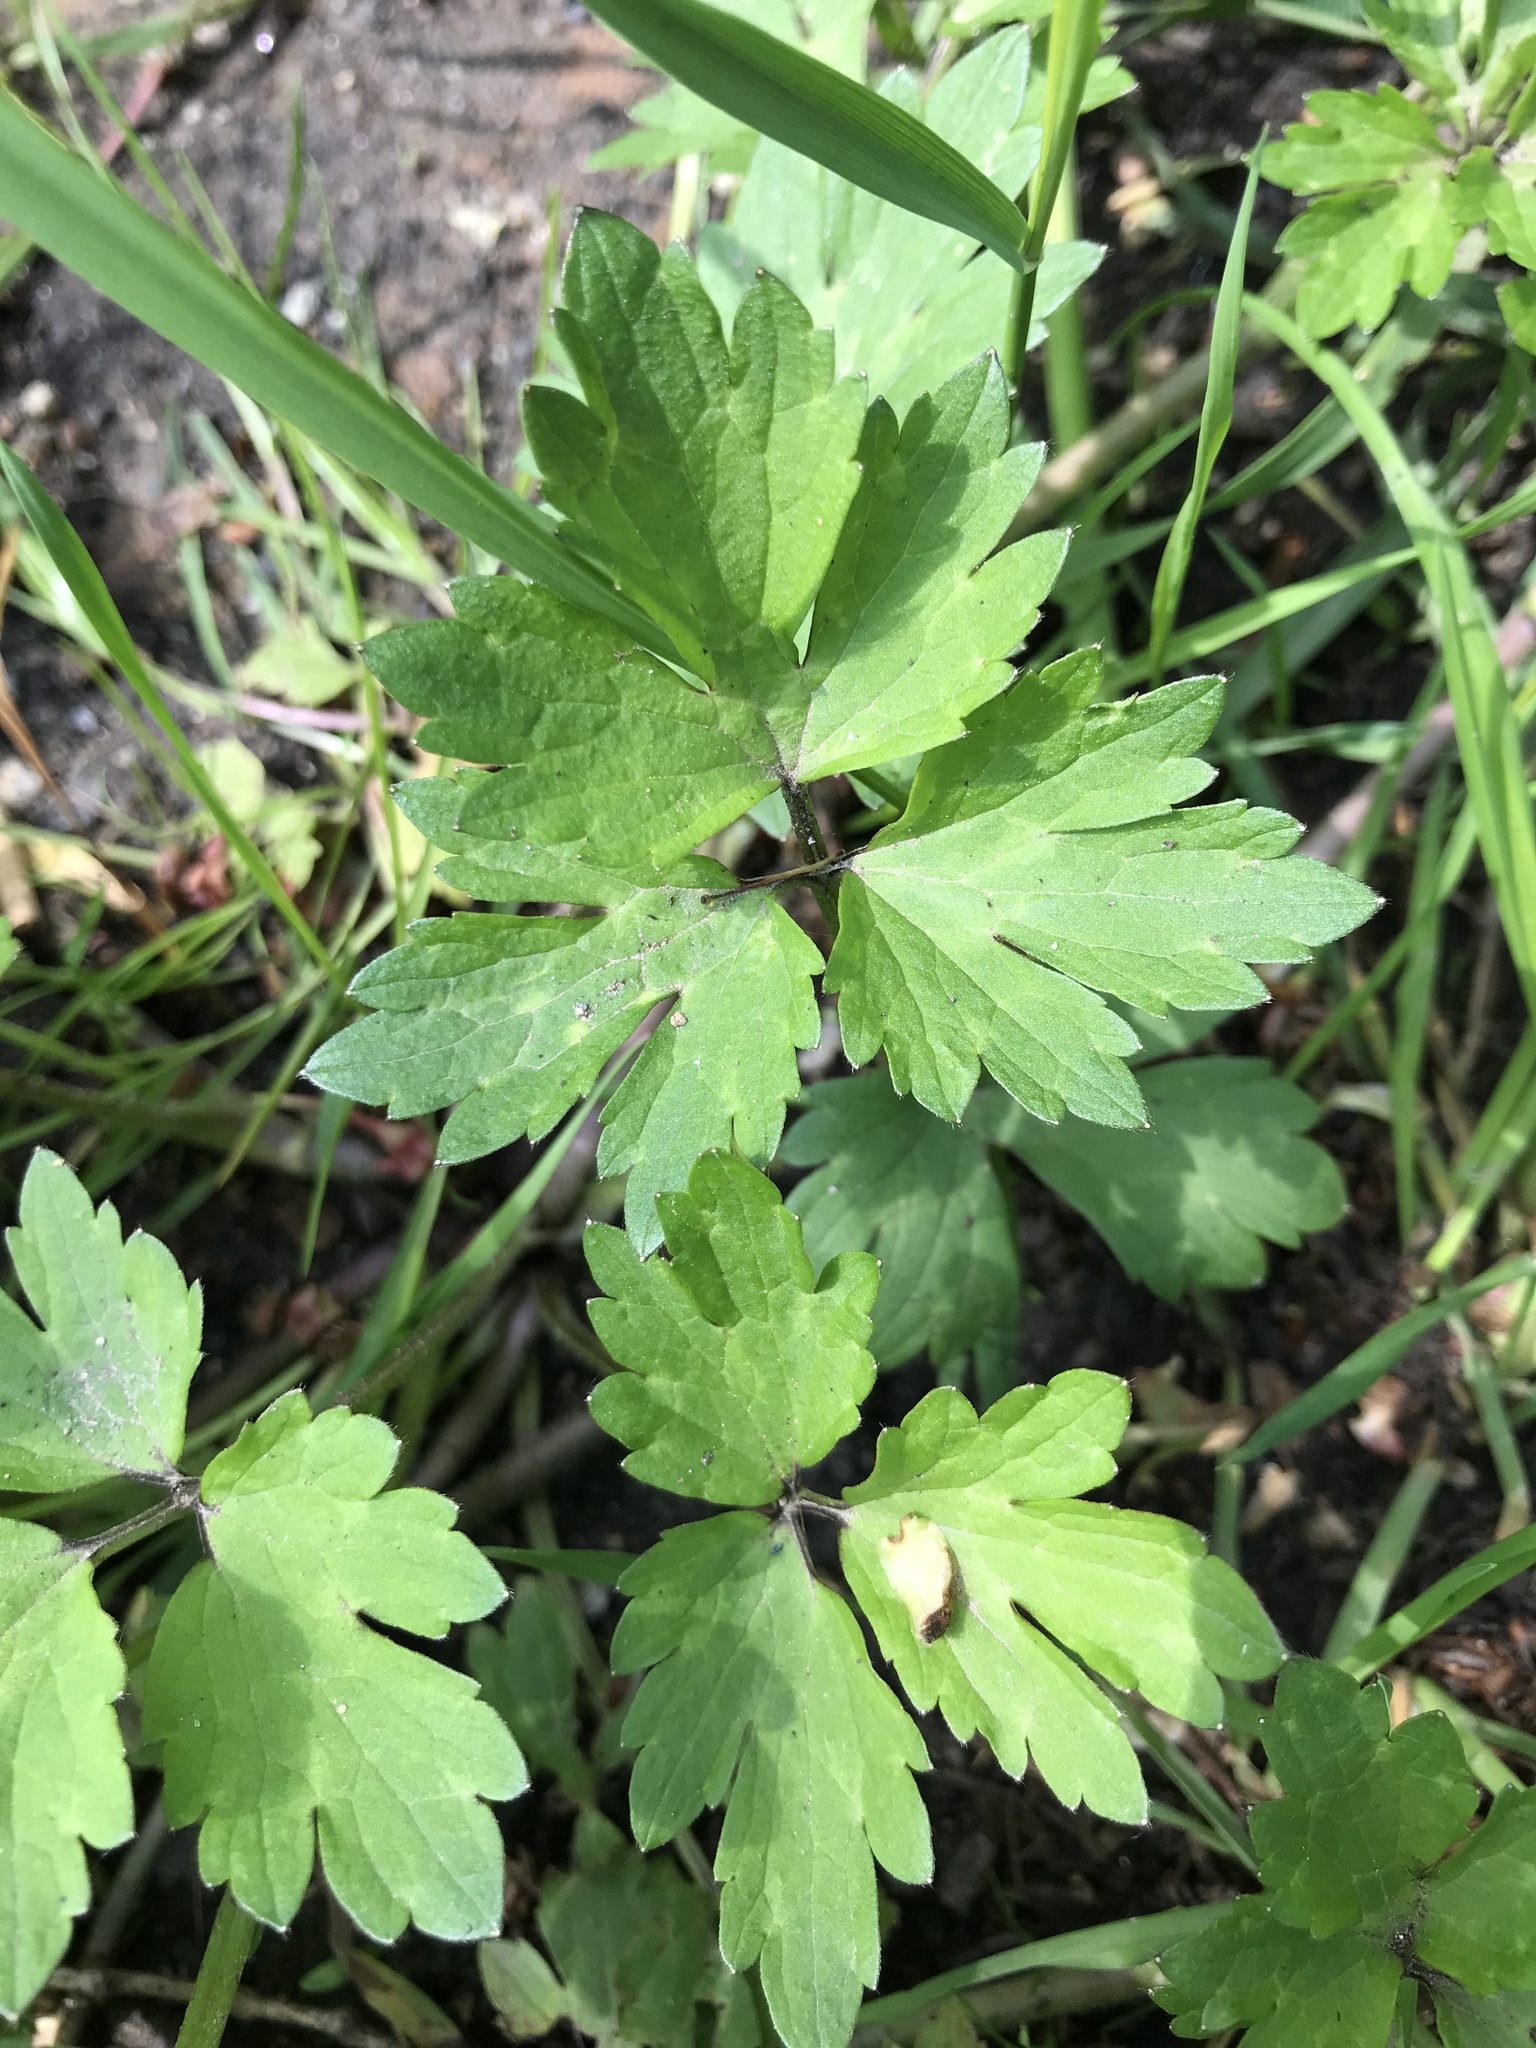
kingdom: Plantae
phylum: Tracheophyta
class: Magnoliopsida
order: Ranunculales
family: Ranunculaceae
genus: Ranunculus
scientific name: Ranunculus repens
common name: Creeping buttercup
